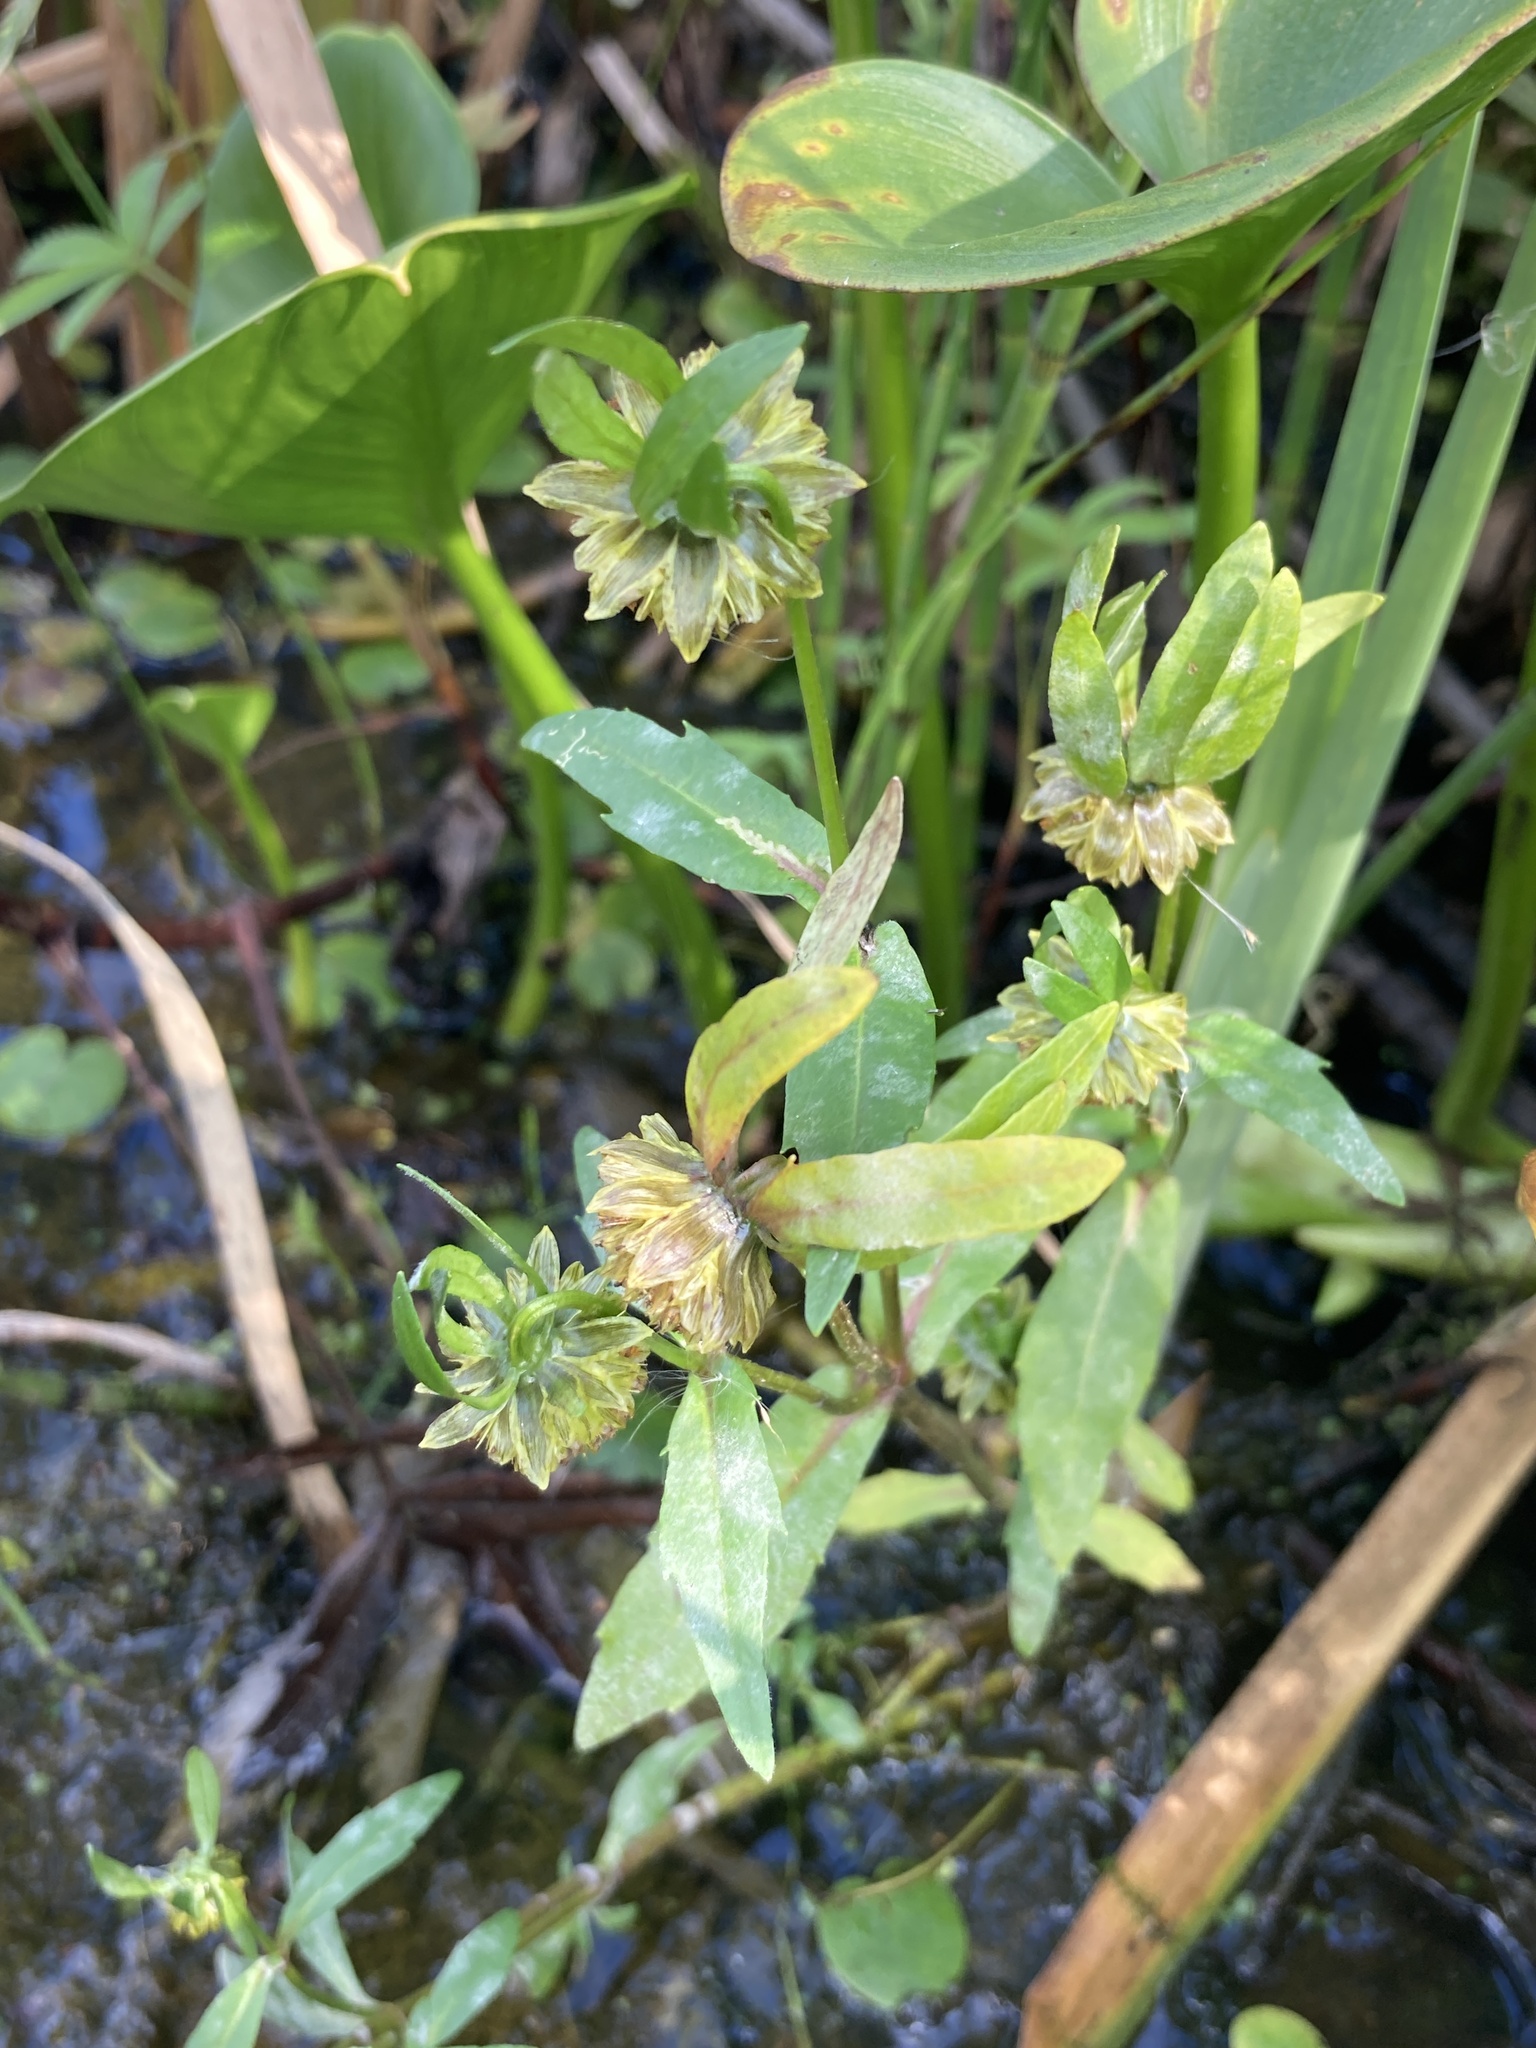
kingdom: Plantae
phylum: Tracheophyta
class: Magnoliopsida
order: Asterales
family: Asteraceae
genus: Bidens
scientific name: Bidens cernua
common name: Nodding bur-marigold
